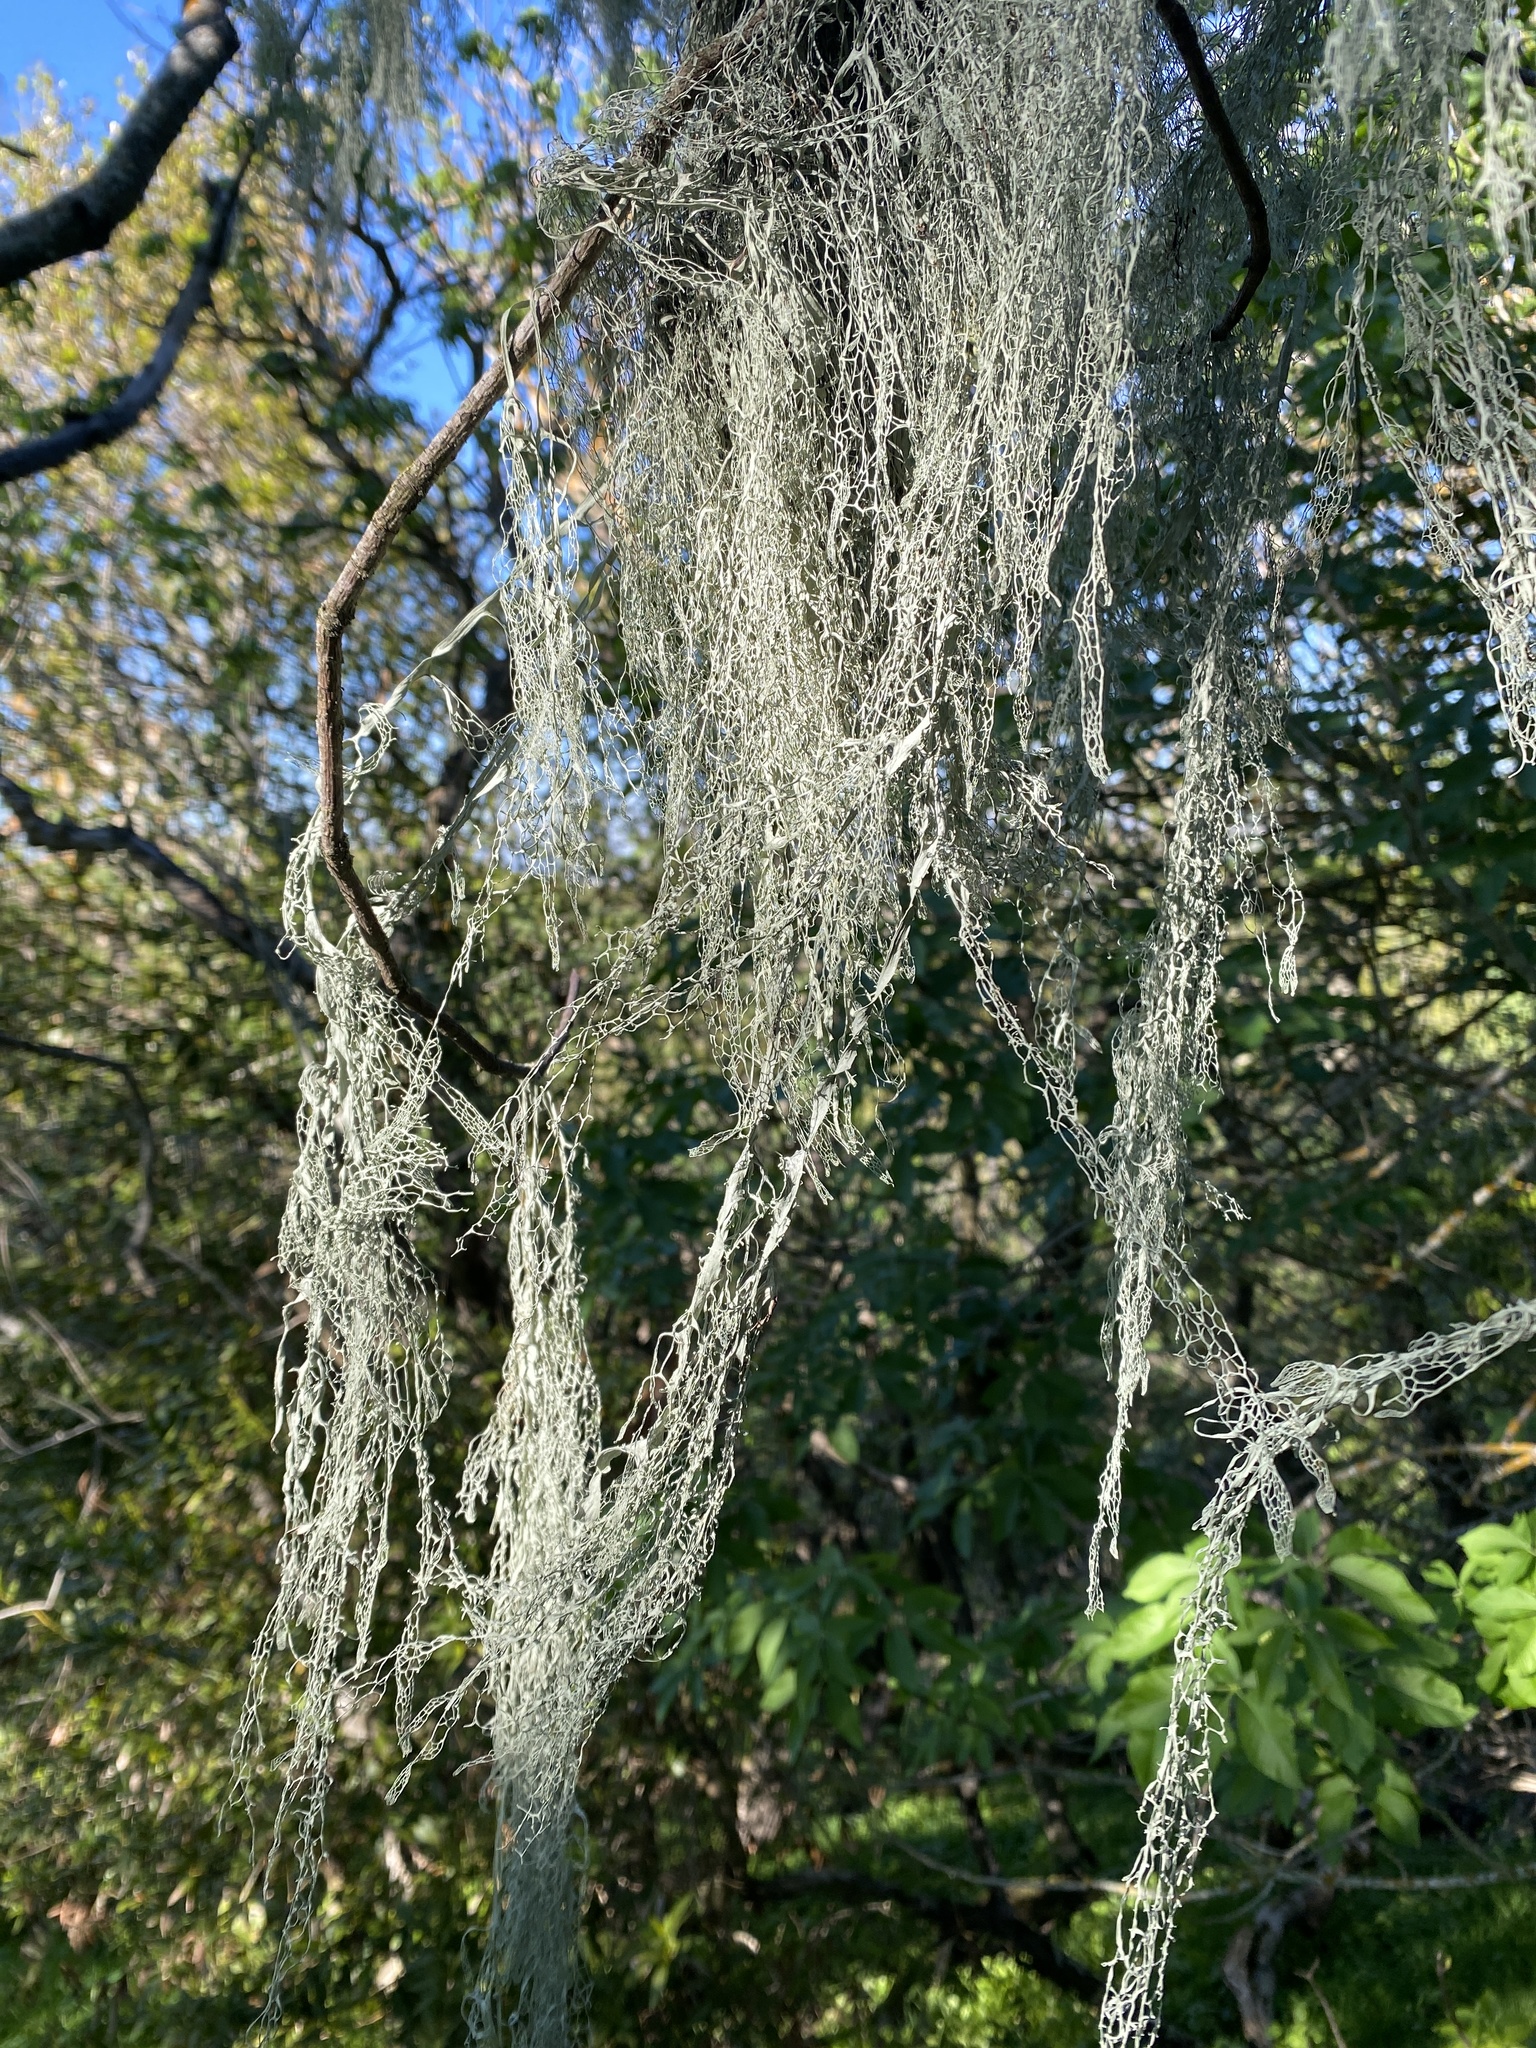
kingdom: Fungi
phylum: Ascomycota
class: Lecanoromycetes
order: Lecanorales
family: Ramalinaceae
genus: Ramalina
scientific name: Ramalina menziesii
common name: Lace lichen
